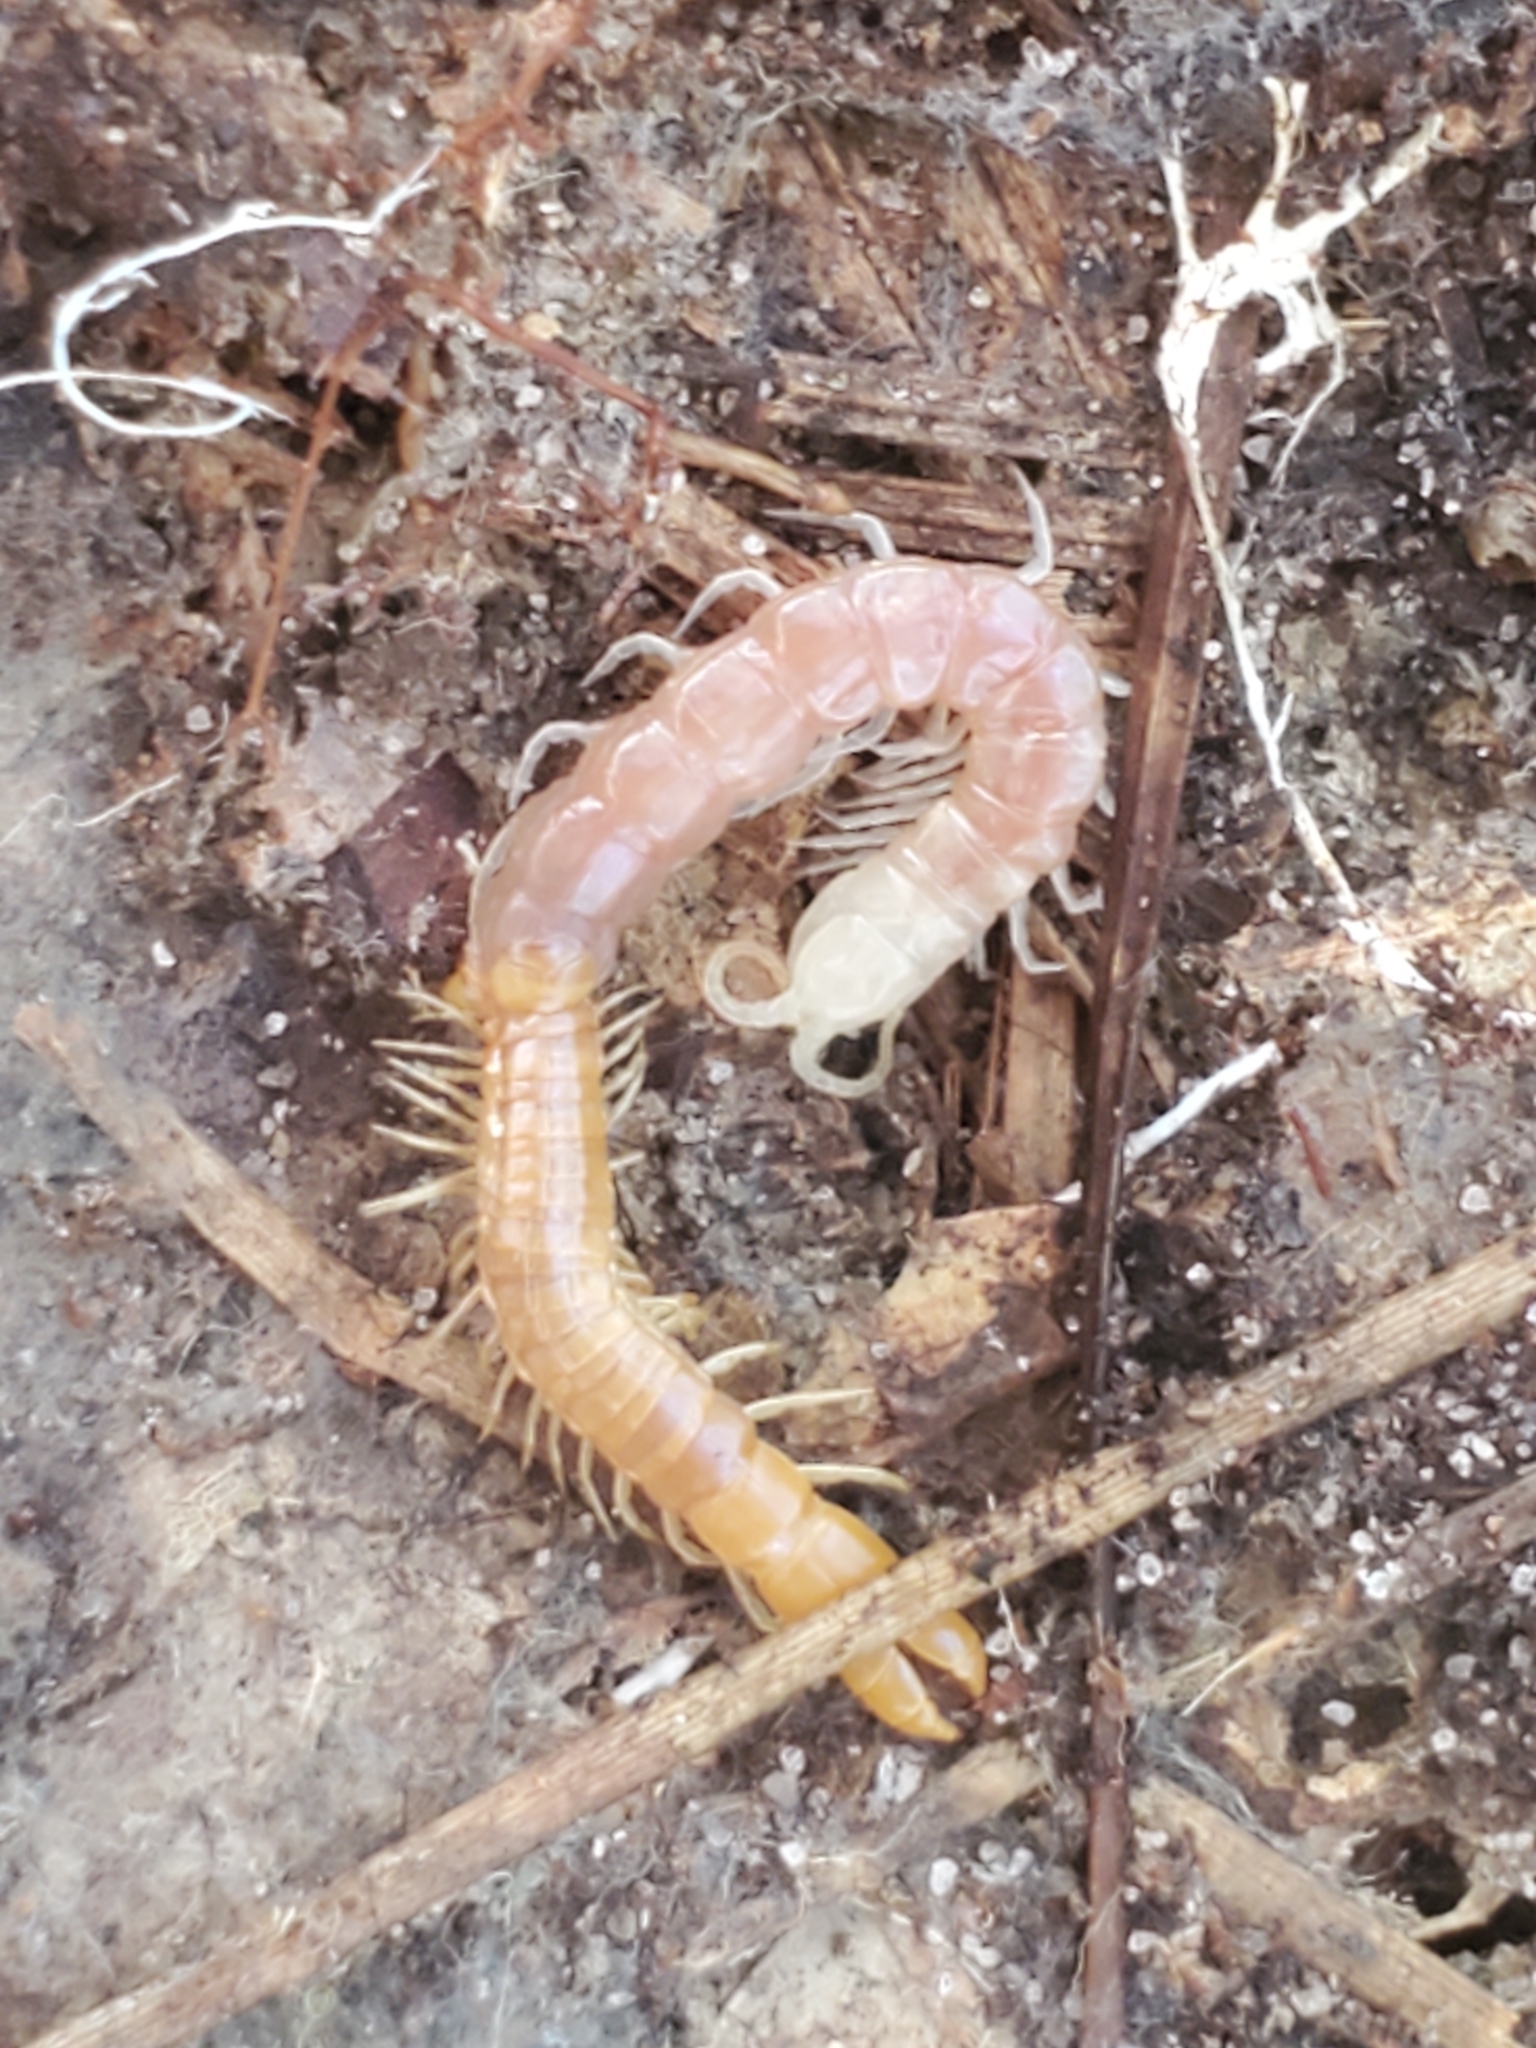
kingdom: Animalia
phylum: Arthropoda
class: Chilopoda
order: Scolopendromorpha
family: Cryptopidae
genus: Theatops
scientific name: Theatops posticus
